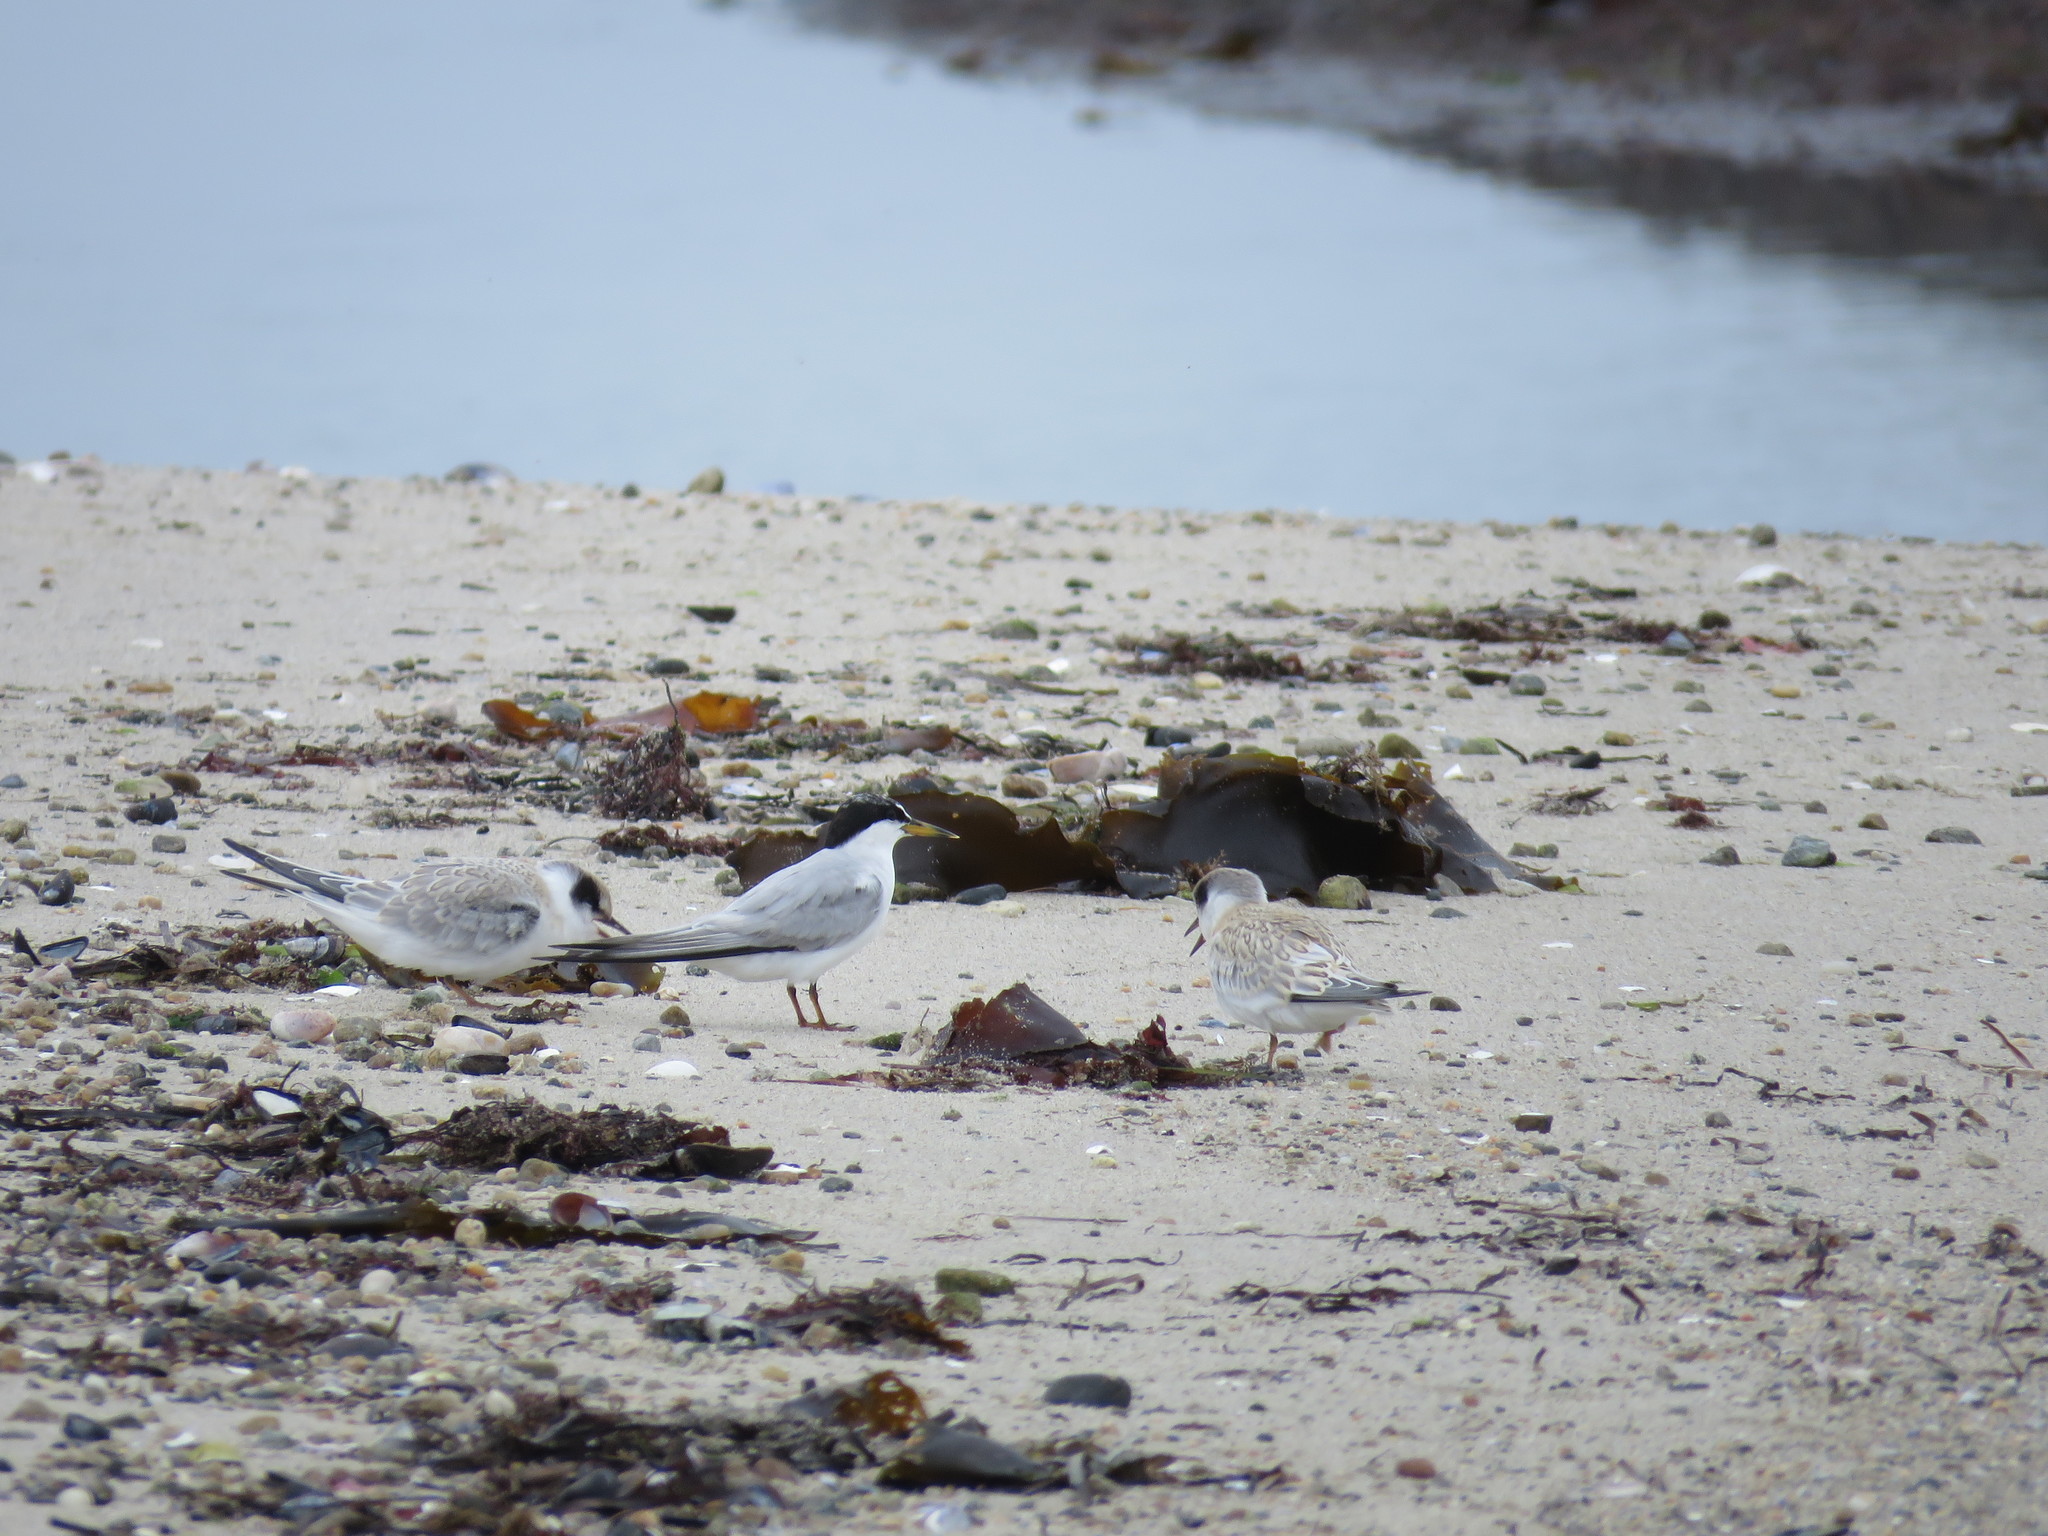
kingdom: Animalia
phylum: Chordata
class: Aves
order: Charadriiformes
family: Laridae
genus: Sternula
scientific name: Sternula antillarum
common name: Least tern
